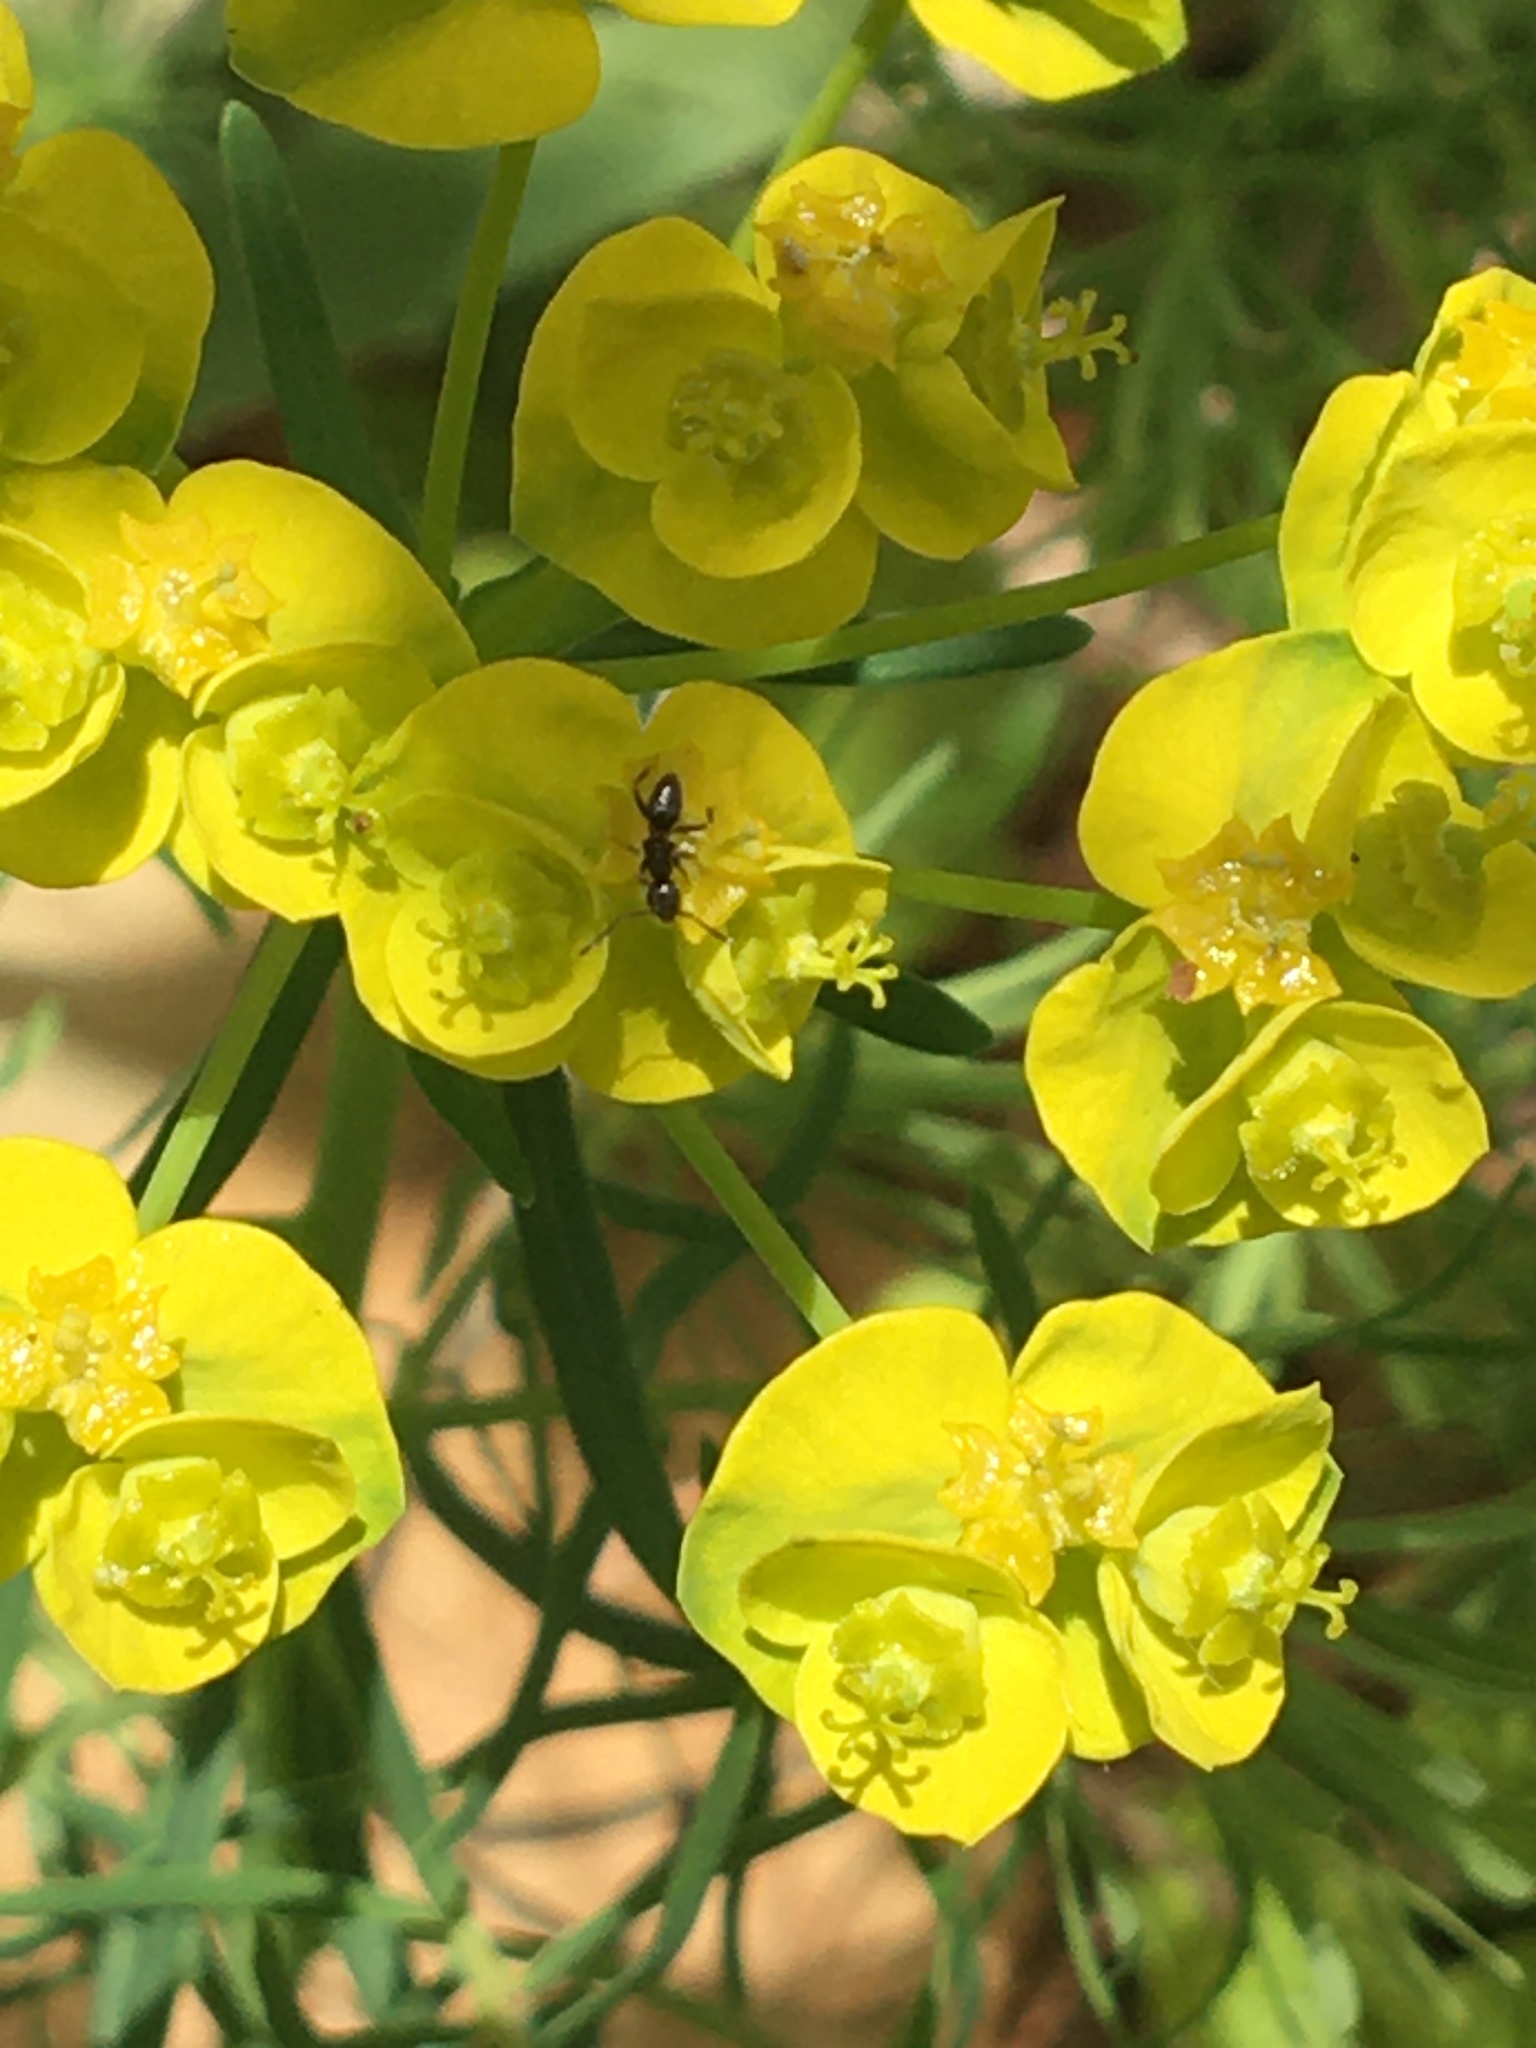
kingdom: Animalia
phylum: Arthropoda
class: Insecta
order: Hymenoptera
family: Formicidae
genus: Tapinoma
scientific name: Tapinoma sessile
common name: Odorous house ant
